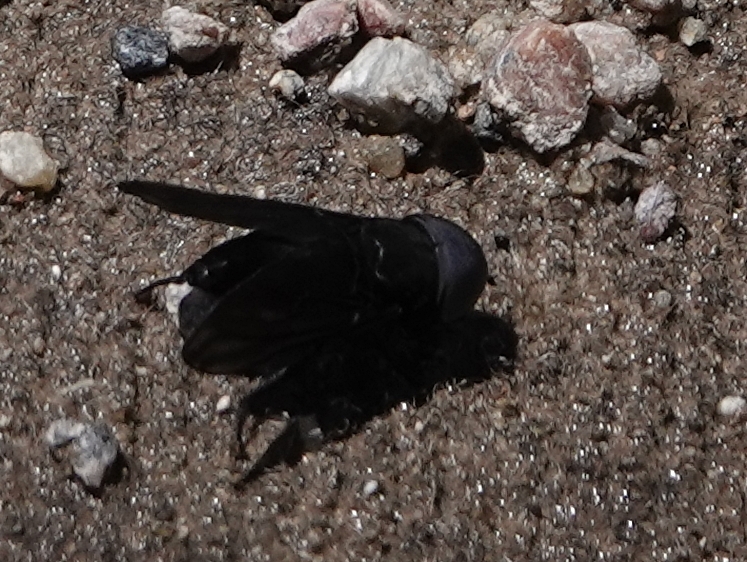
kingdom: Animalia
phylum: Arthropoda
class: Insecta
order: Diptera
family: Tabanidae
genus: Tabanus
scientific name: Tabanus atratus
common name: Black horse fly
